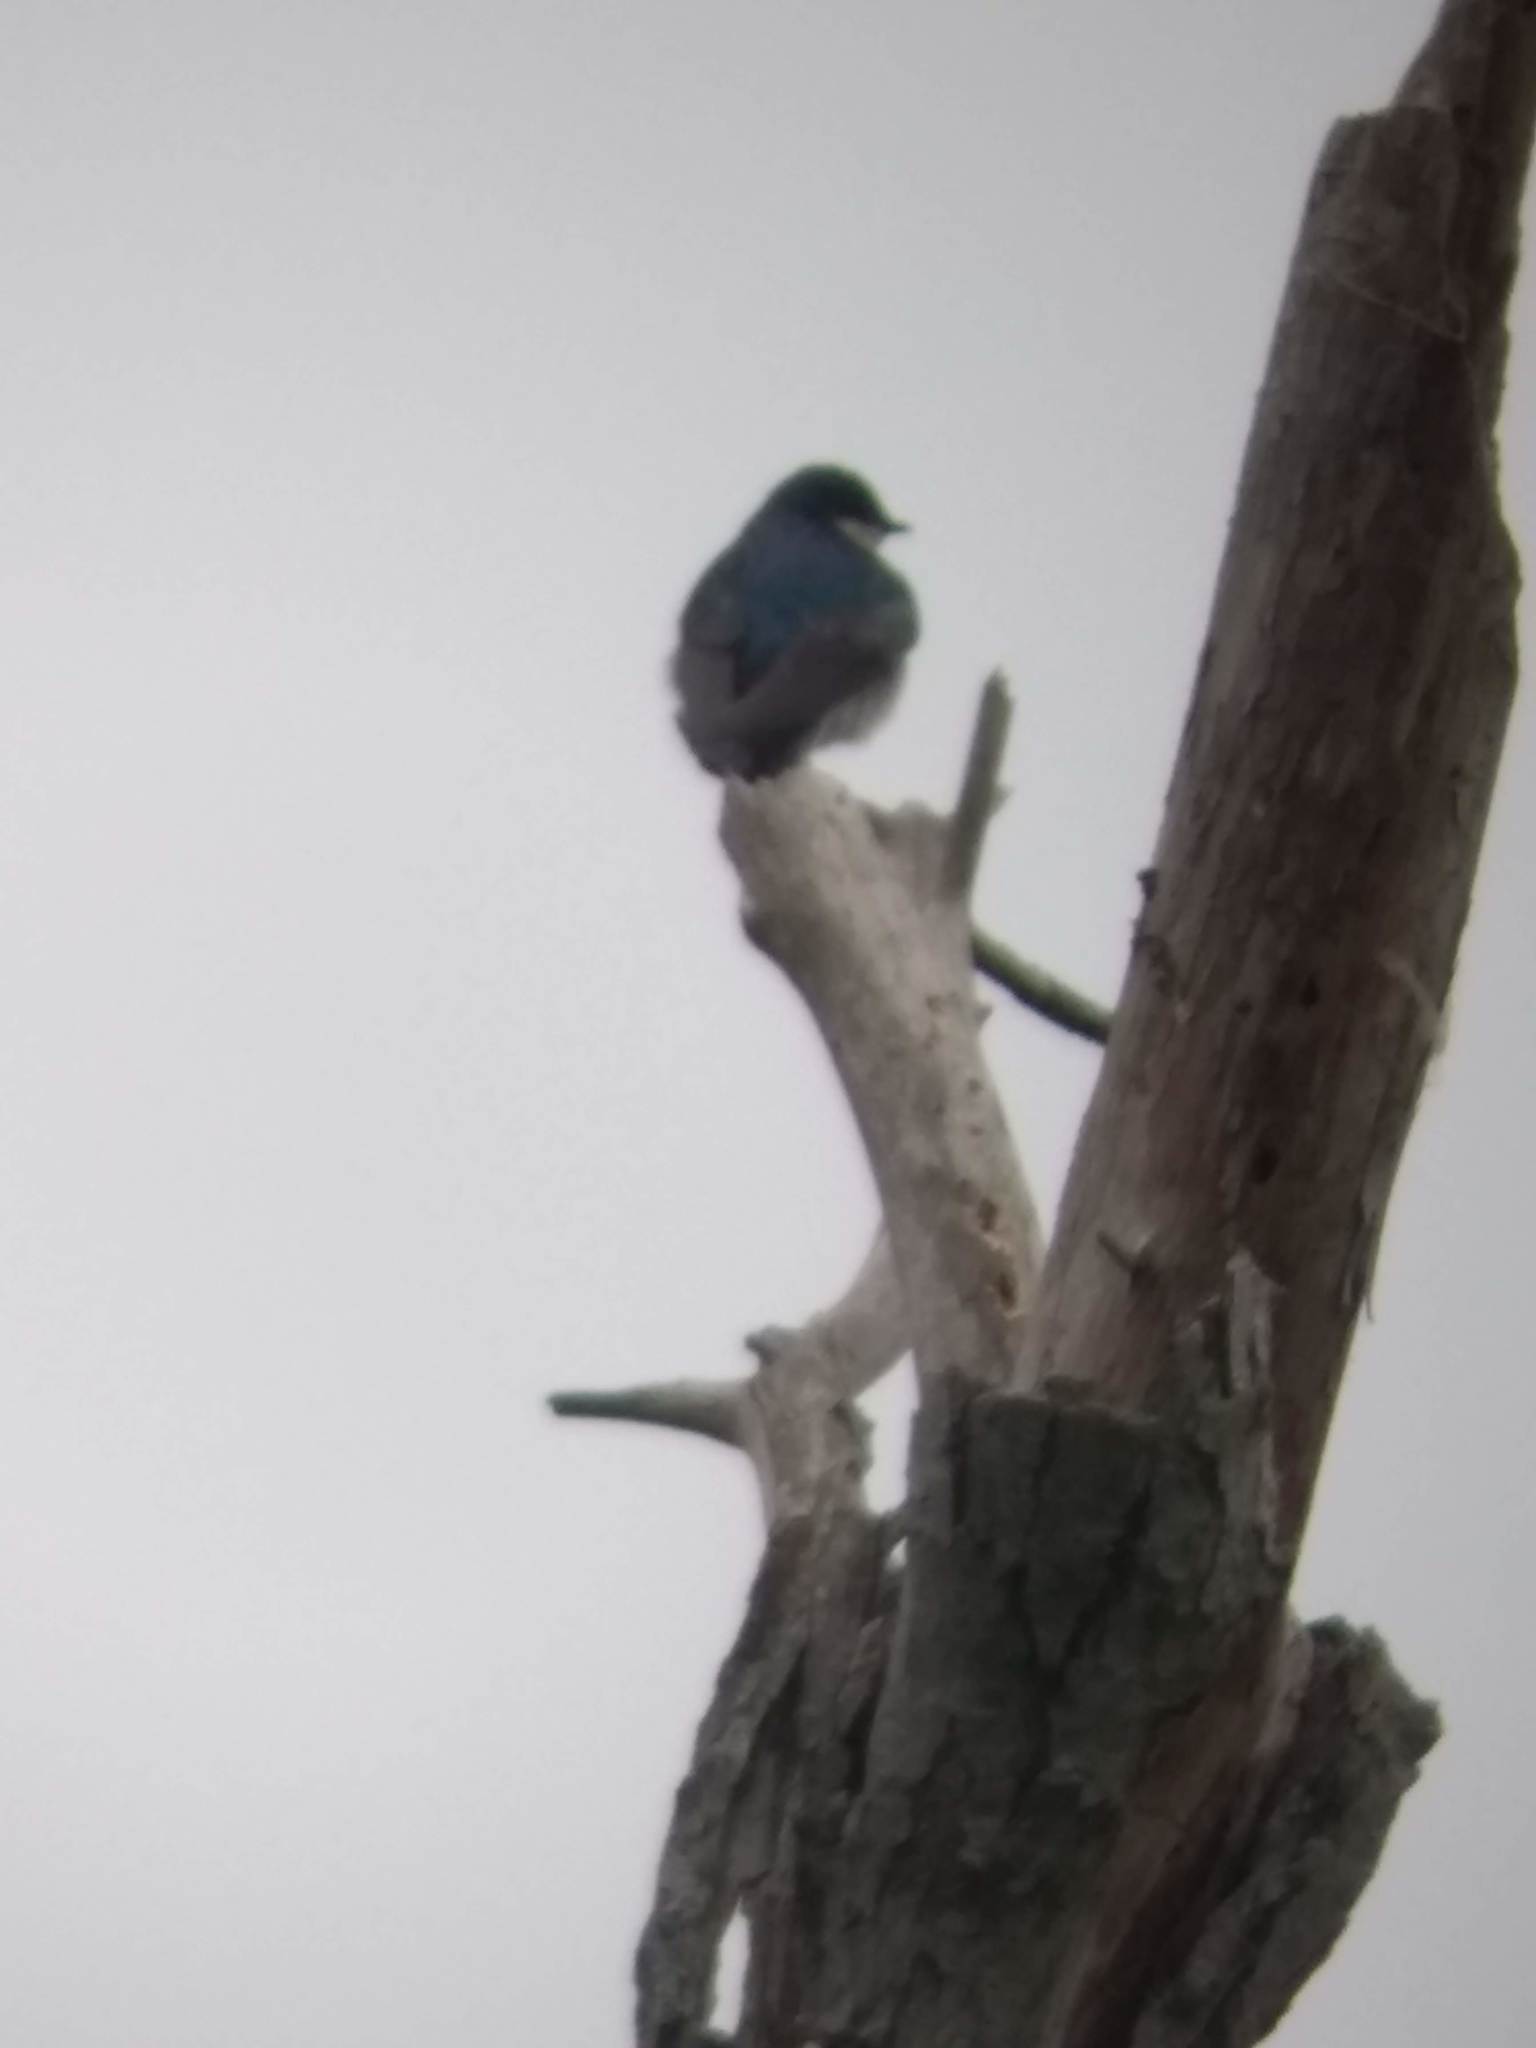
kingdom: Animalia
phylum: Chordata
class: Aves
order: Passeriformes
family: Hirundinidae
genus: Tachycineta
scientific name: Tachycineta bicolor
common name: Tree swallow
